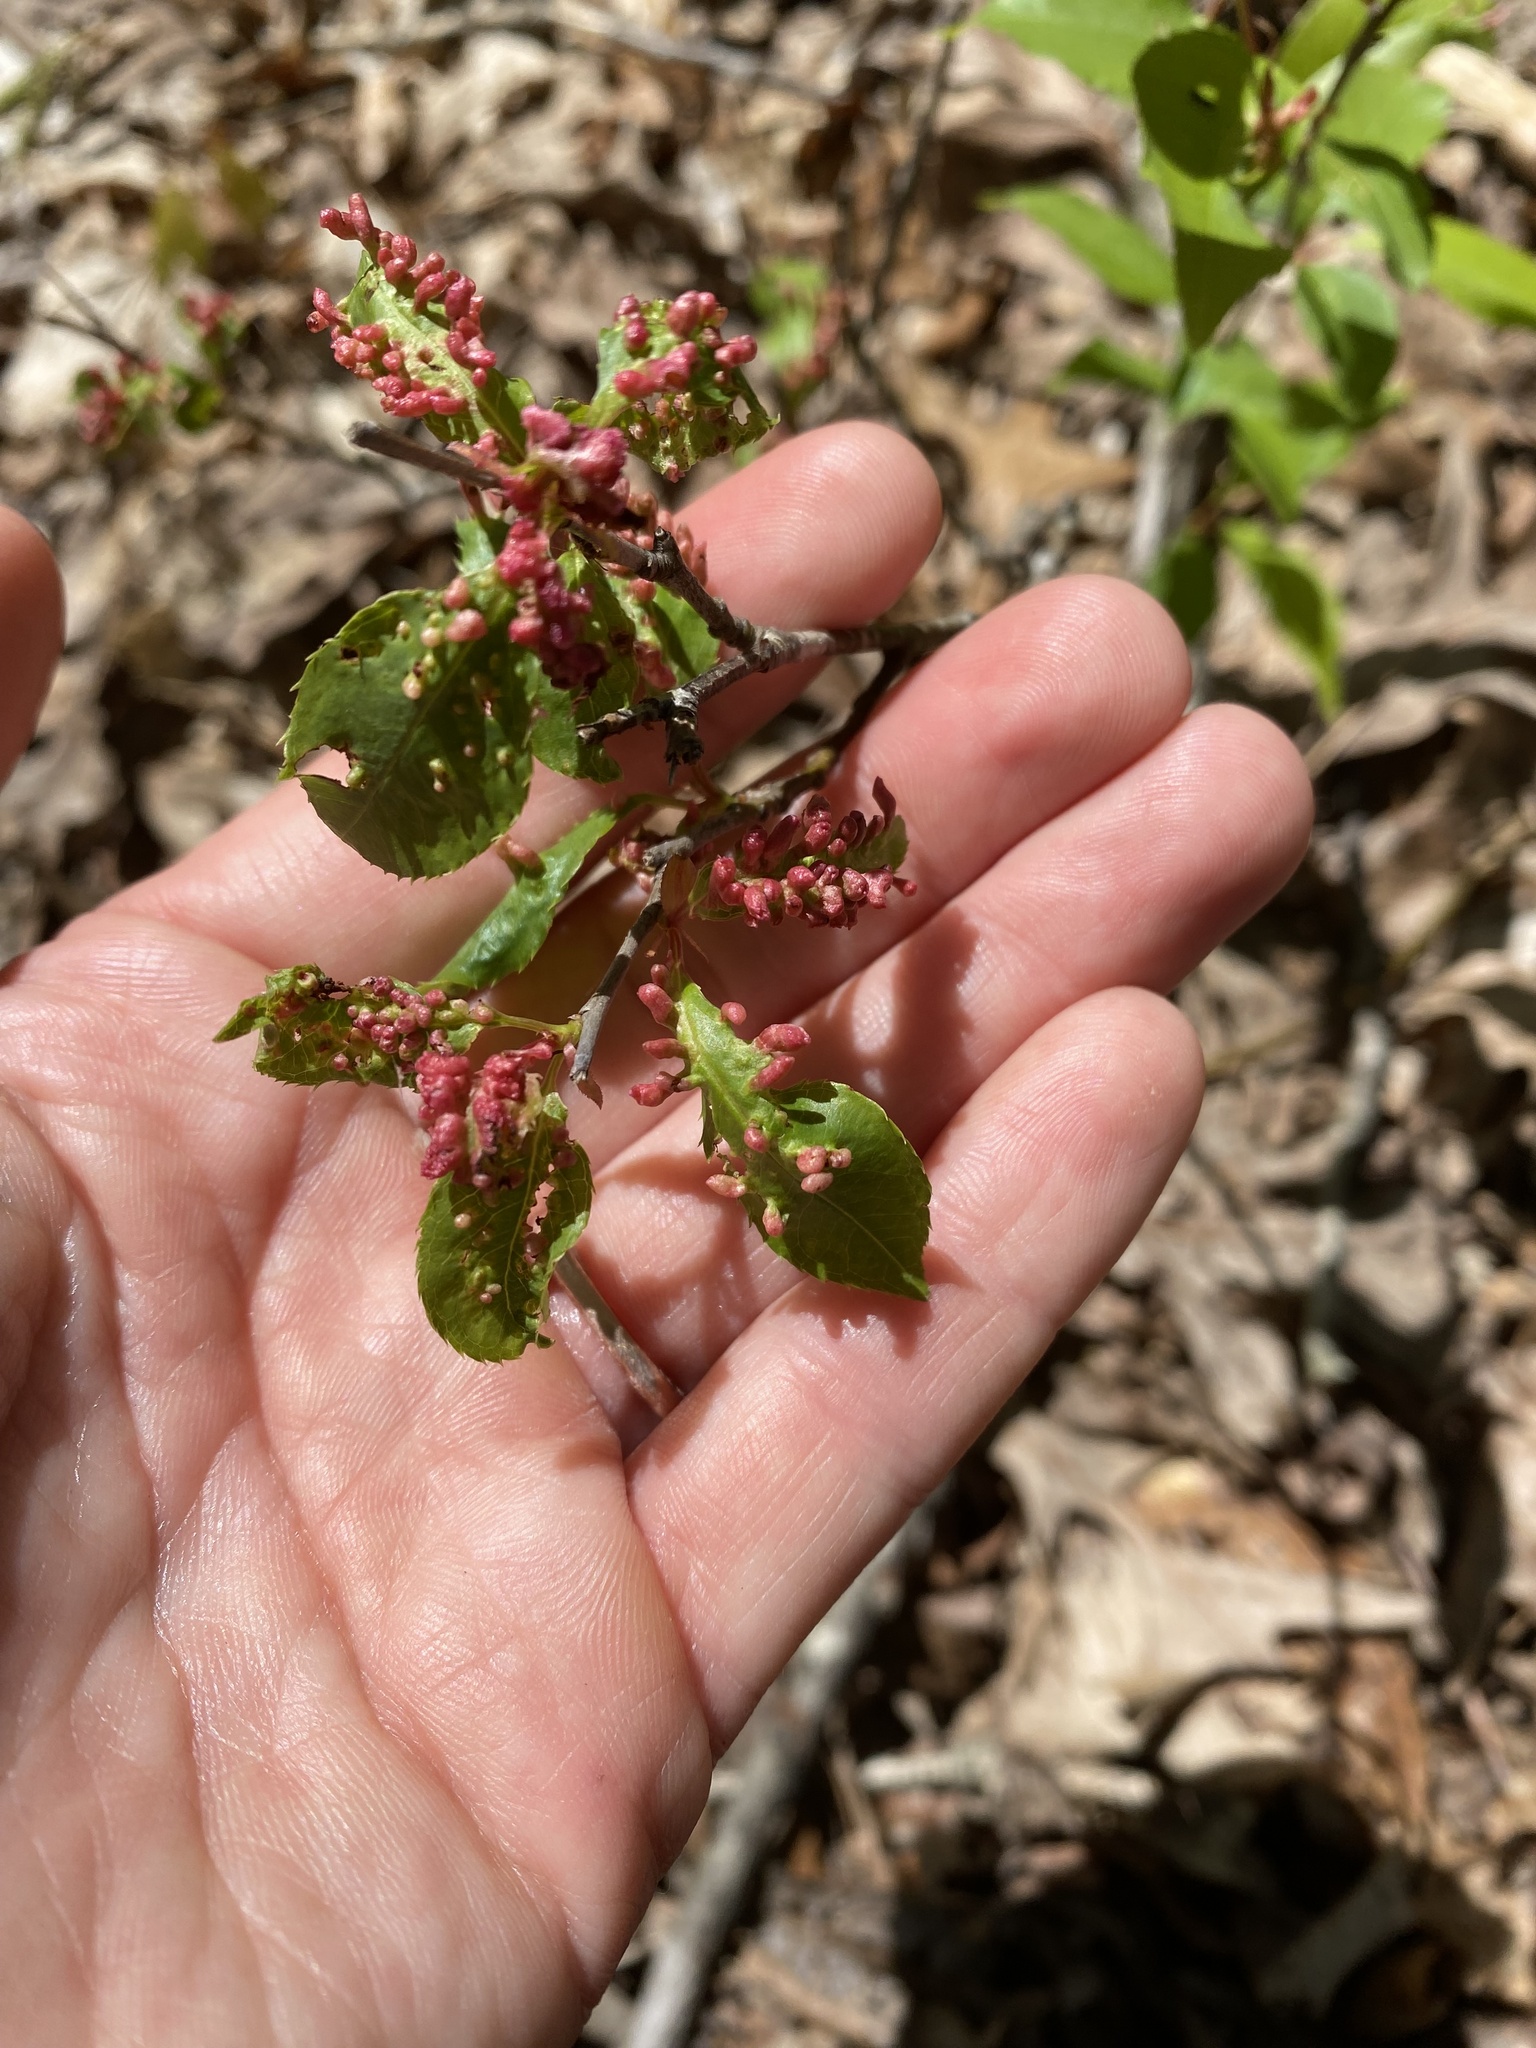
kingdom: Animalia
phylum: Arthropoda
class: Arachnida
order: Trombidiformes
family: Eriophyidae
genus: Eriophyes
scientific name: Eriophyes
